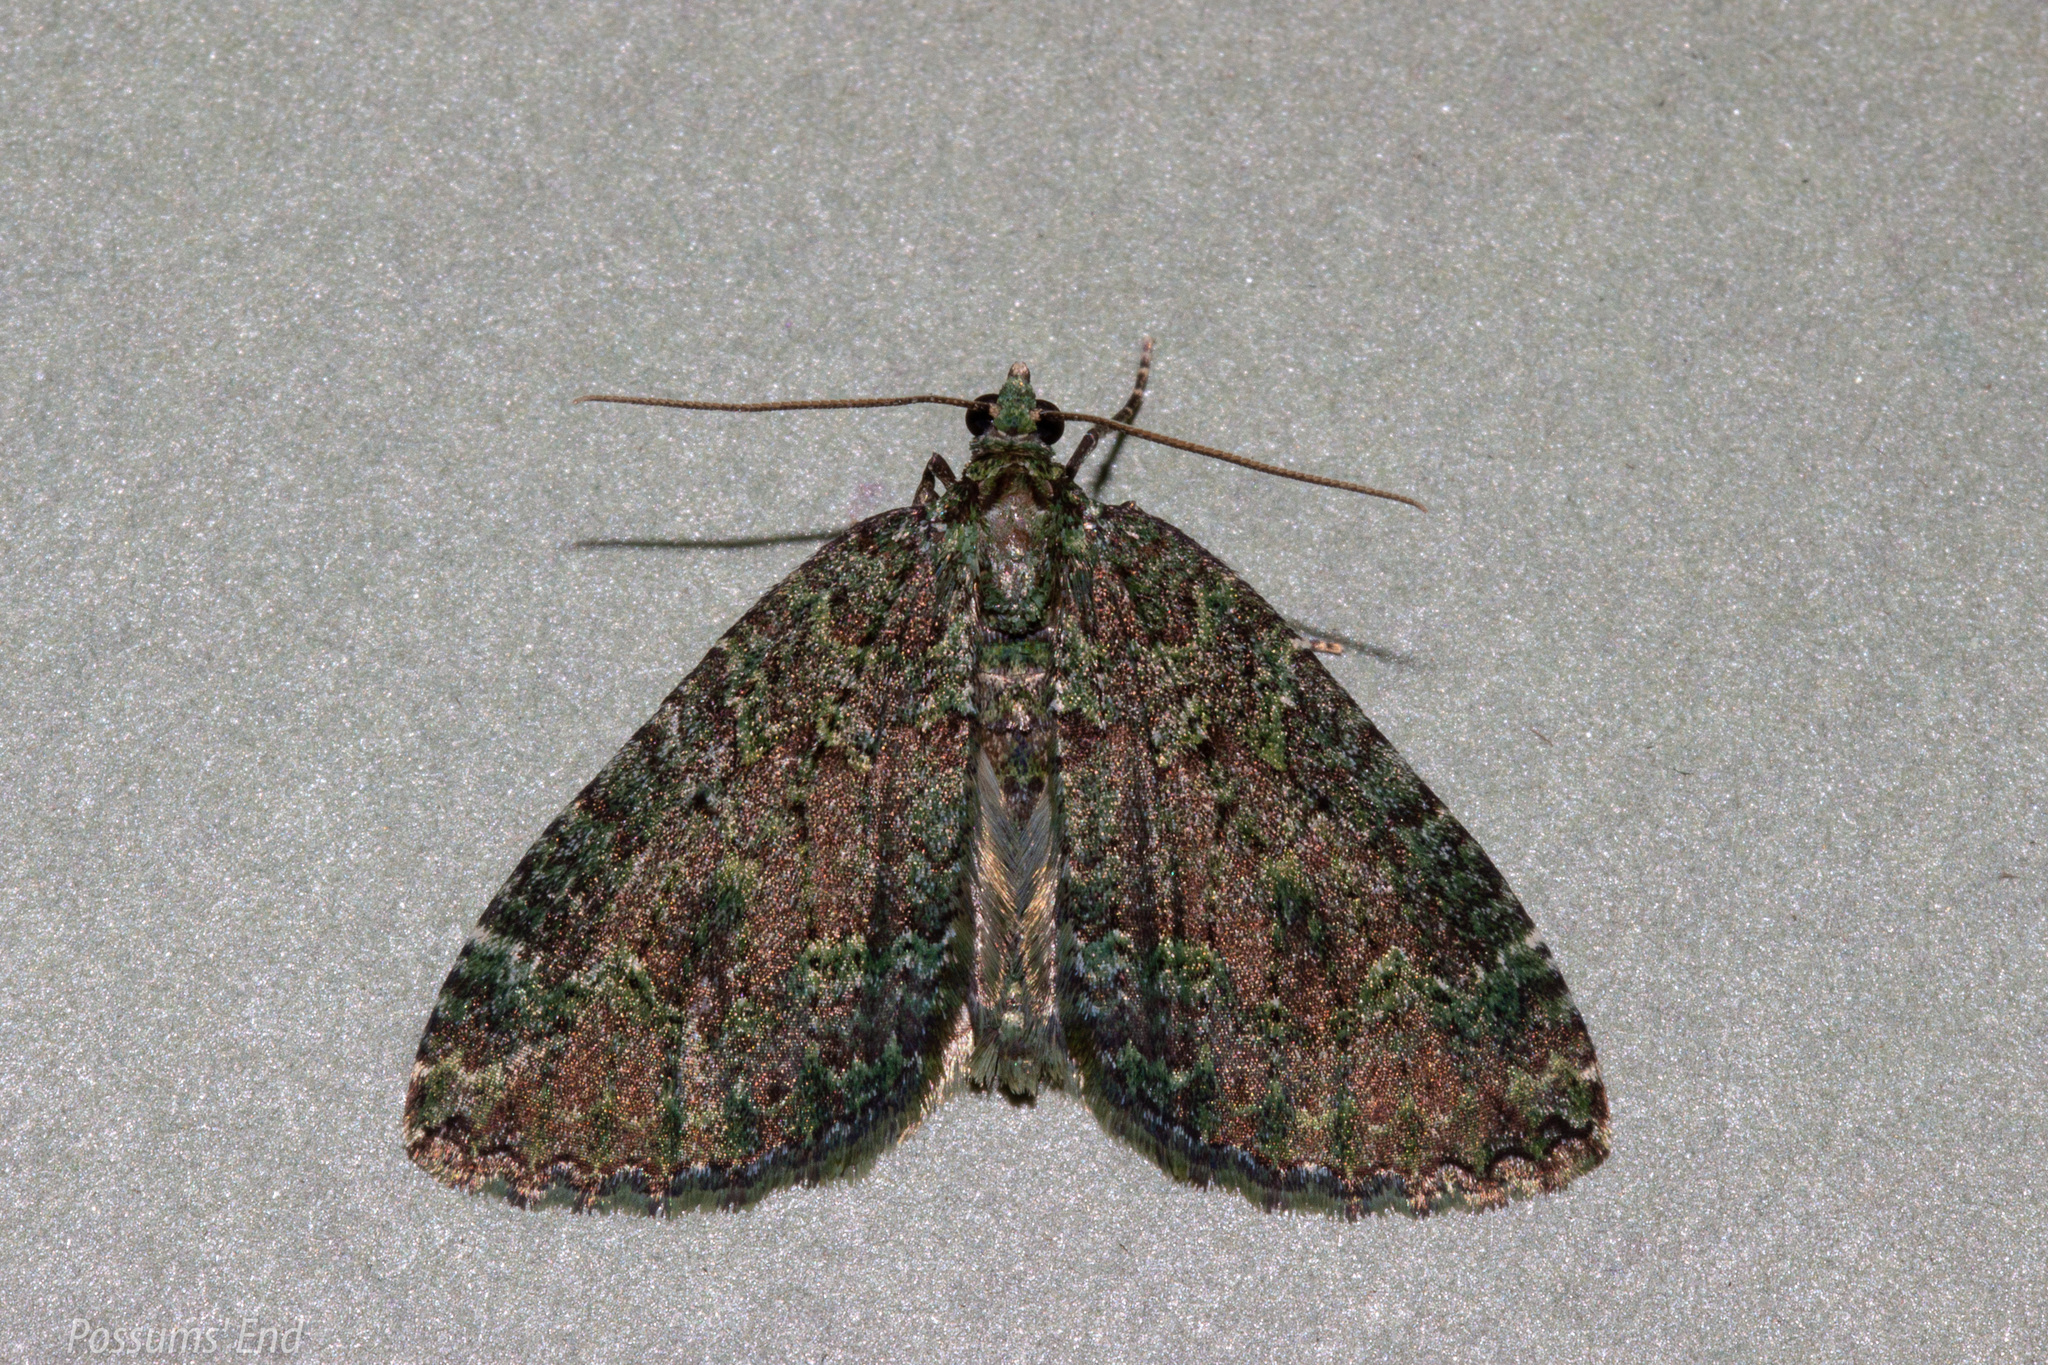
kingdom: Animalia
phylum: Arthropoda
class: Insecta
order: Lepidoptera
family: Geometridae
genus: Austrocidaria
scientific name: Austrocidaria callichlora
